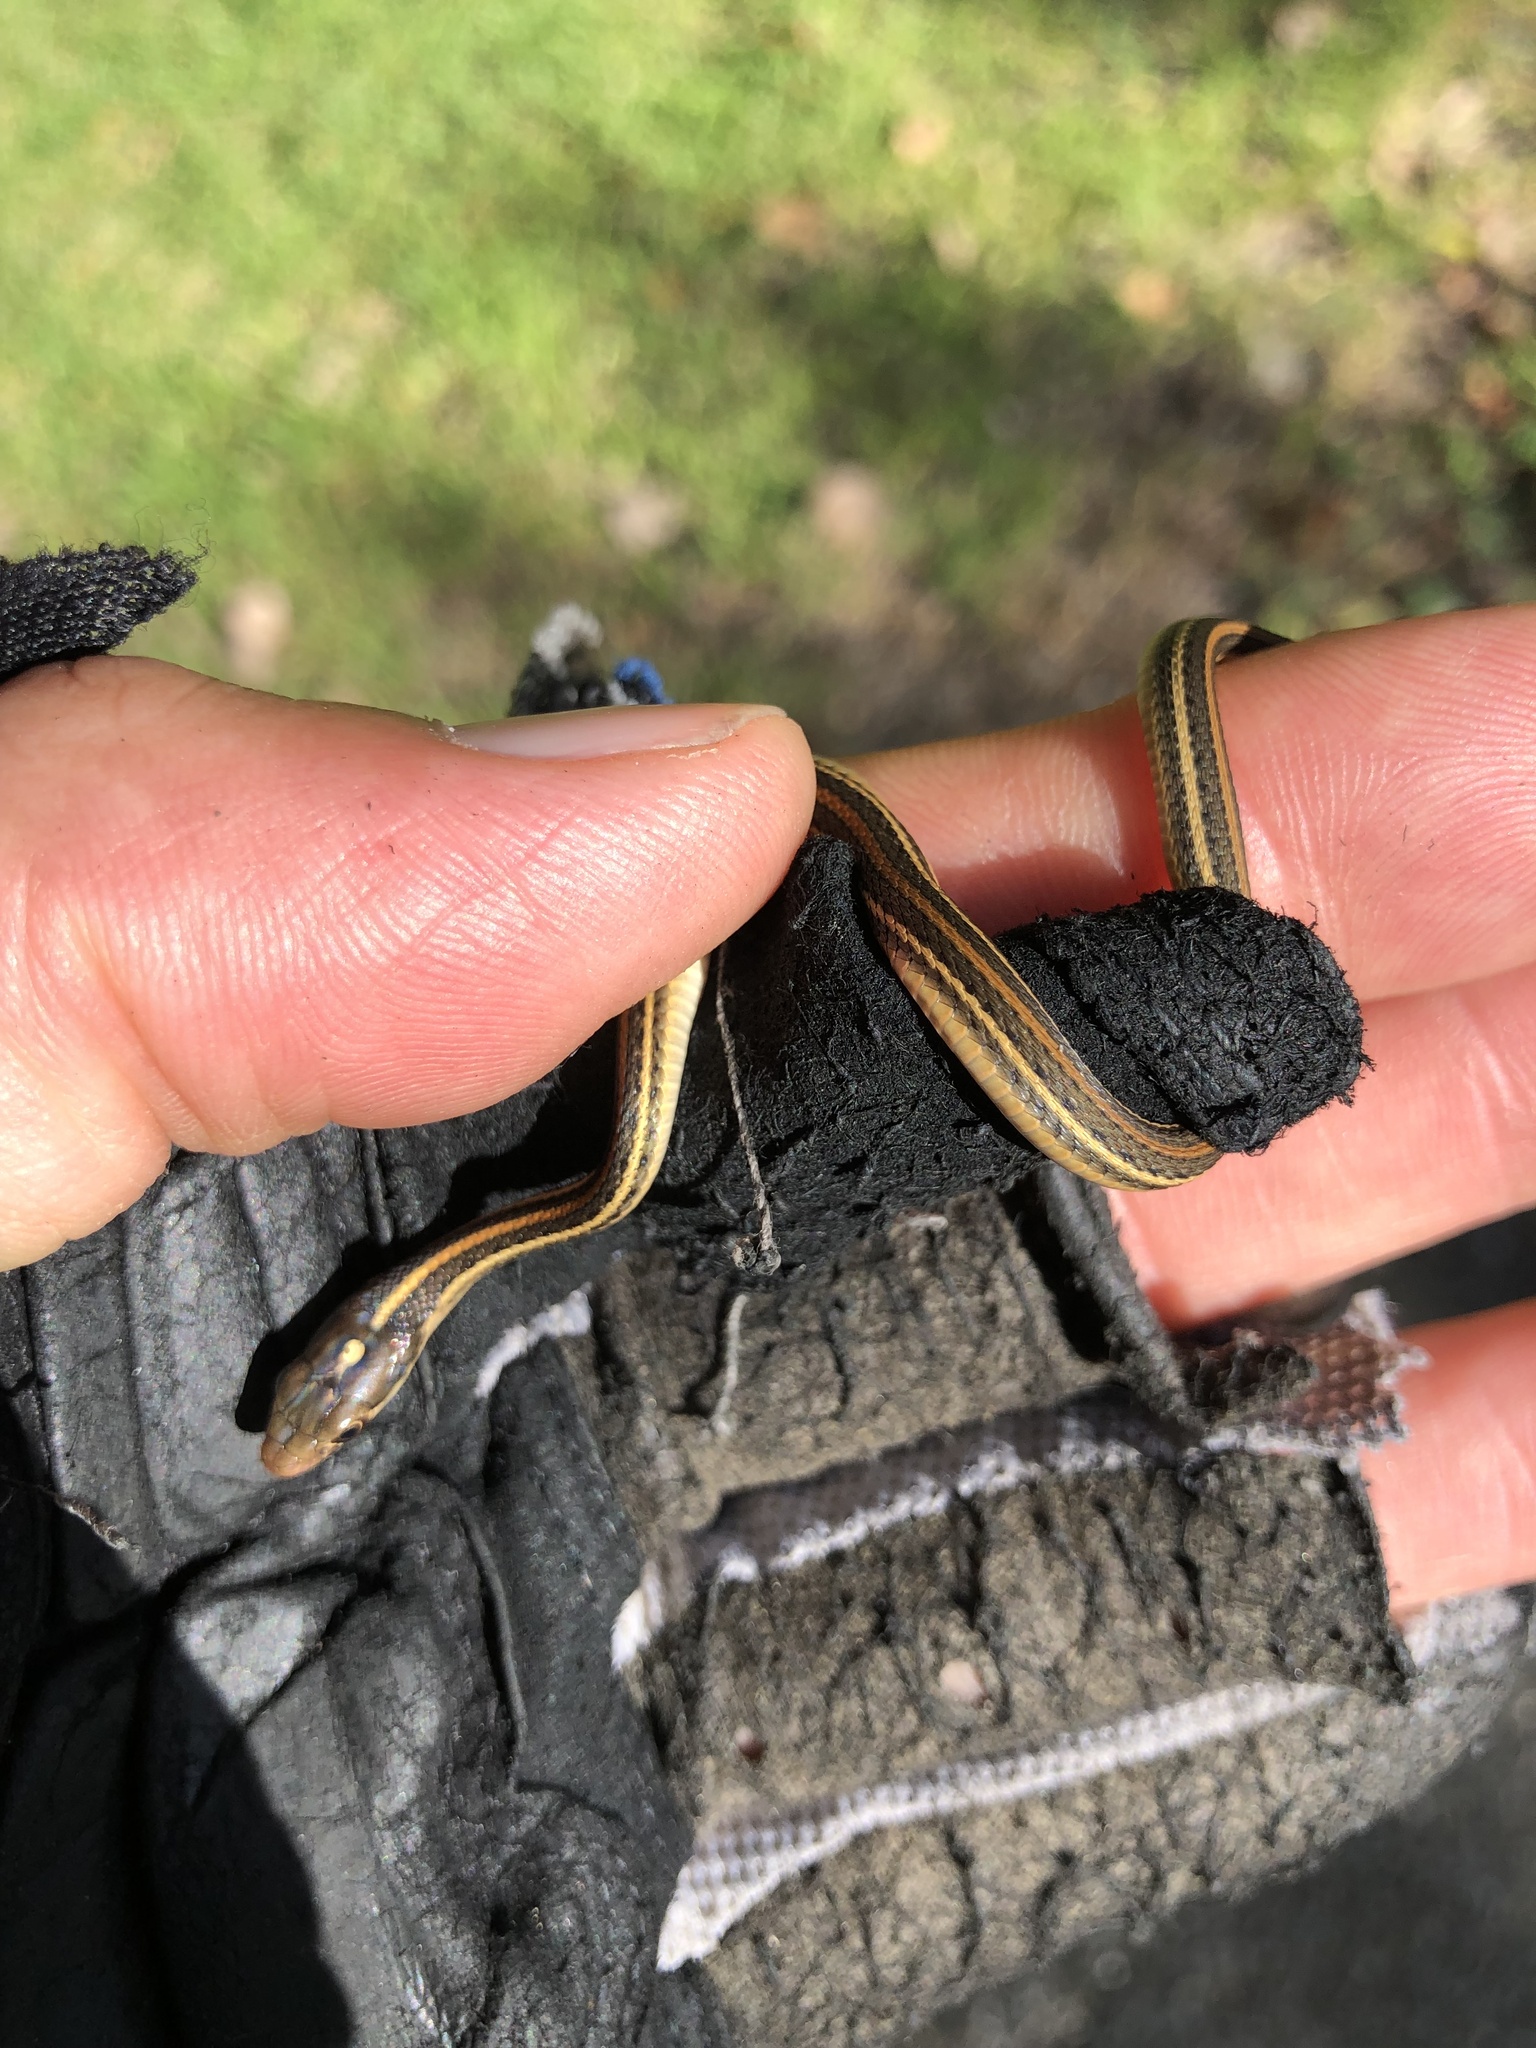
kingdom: Animalia
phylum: Chordata
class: Squamata
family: Colubridae
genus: Thamnophis
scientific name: Thamnophis proximus
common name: Western ribbon snake
